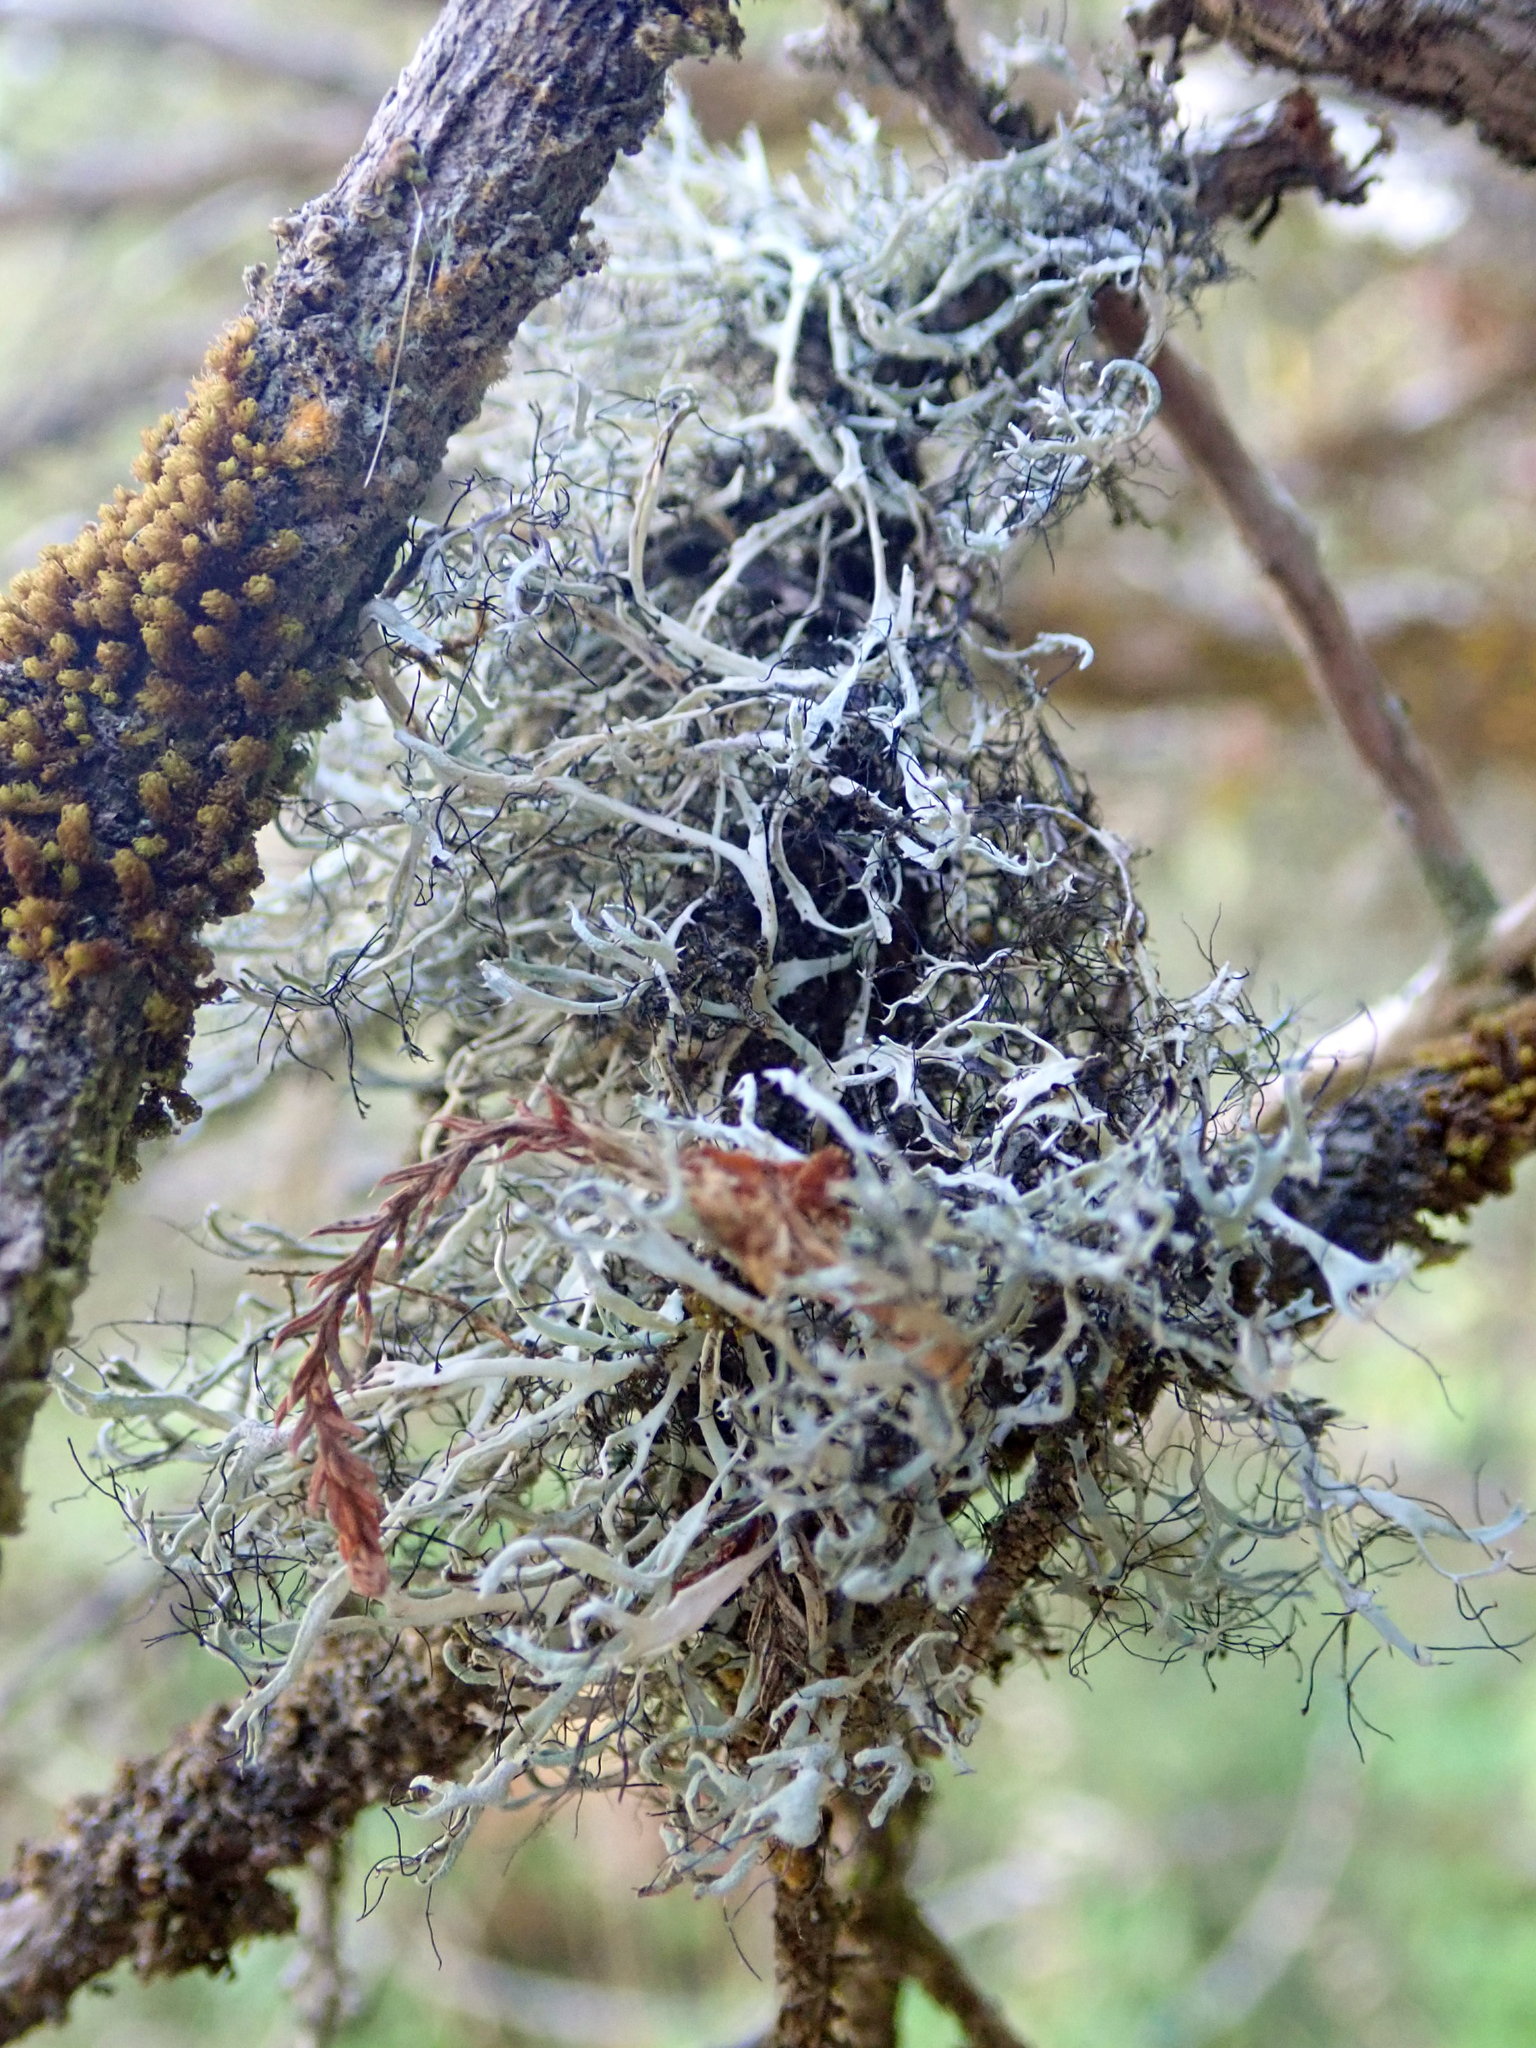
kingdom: Fungi
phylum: Ascomycota
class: Lecanoromycetes
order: Caliciales
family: Physciaceae
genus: Leucodermia
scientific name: Leucodermia leucomelos
